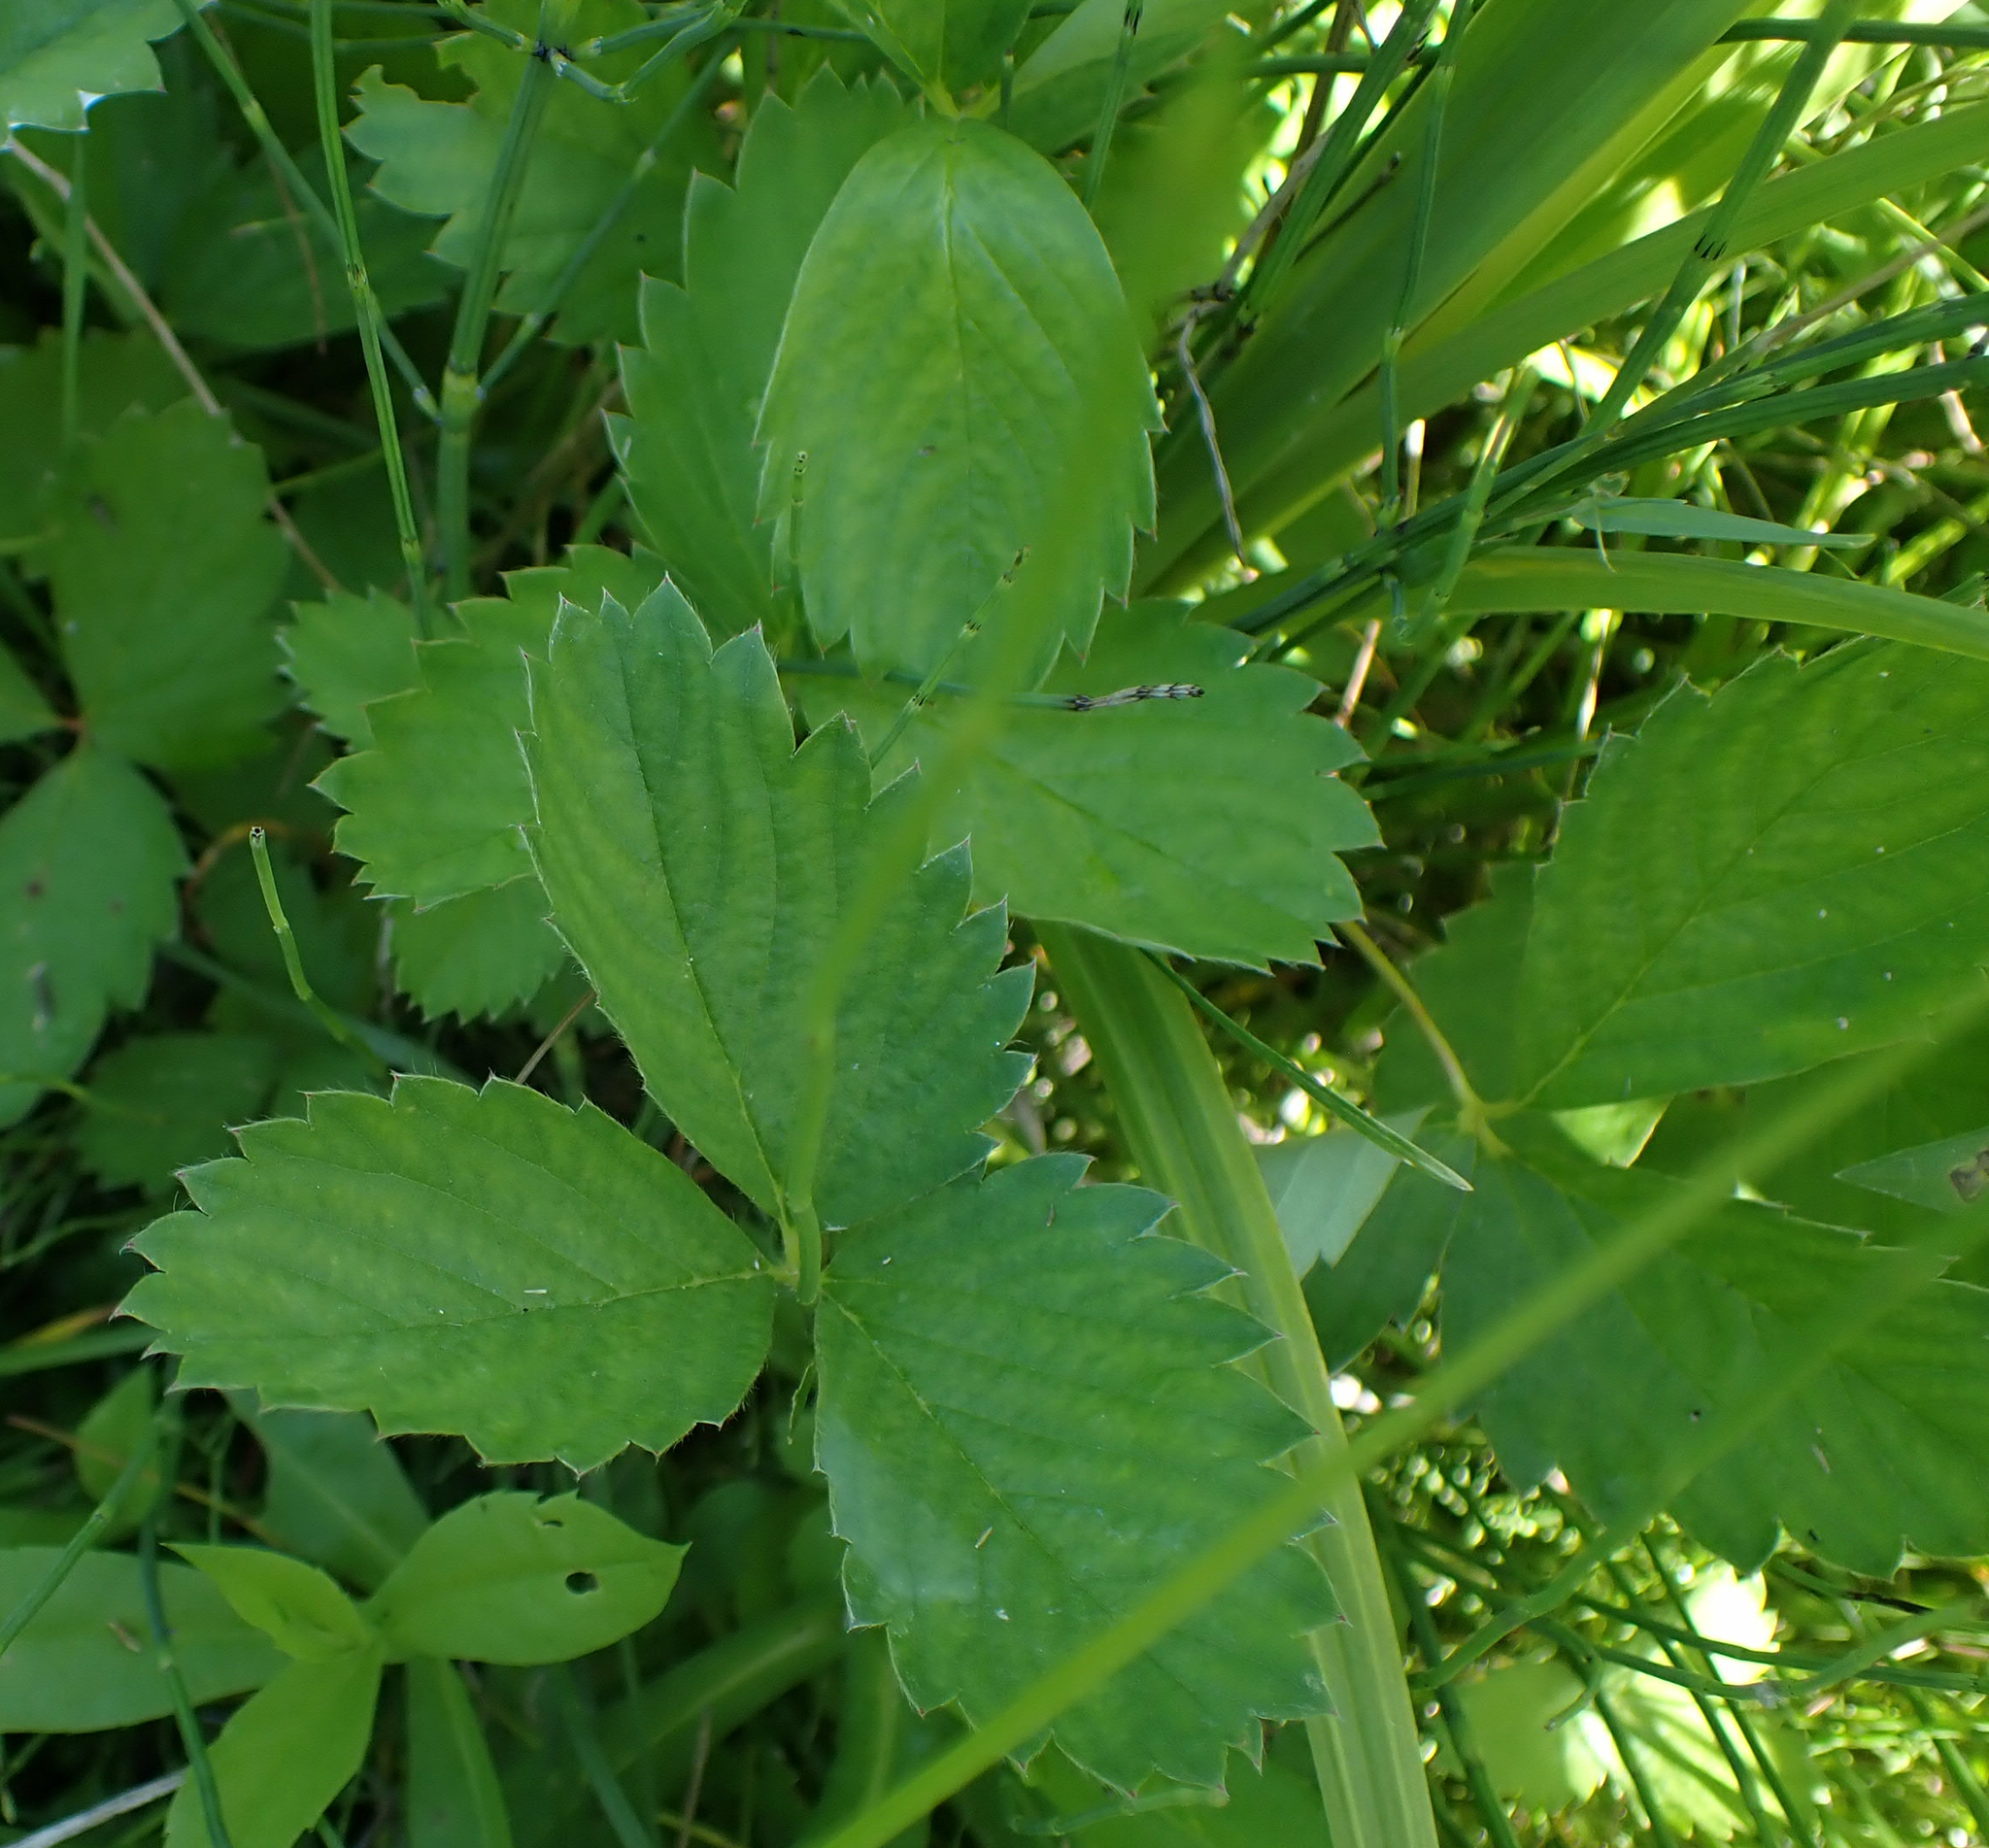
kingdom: Plantae
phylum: Tracheophyta
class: Magnoliopsida
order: Rosales
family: Rosaceae
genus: Fragaria
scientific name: Fragaria virginiana
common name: Thickleaved wild strawberry
